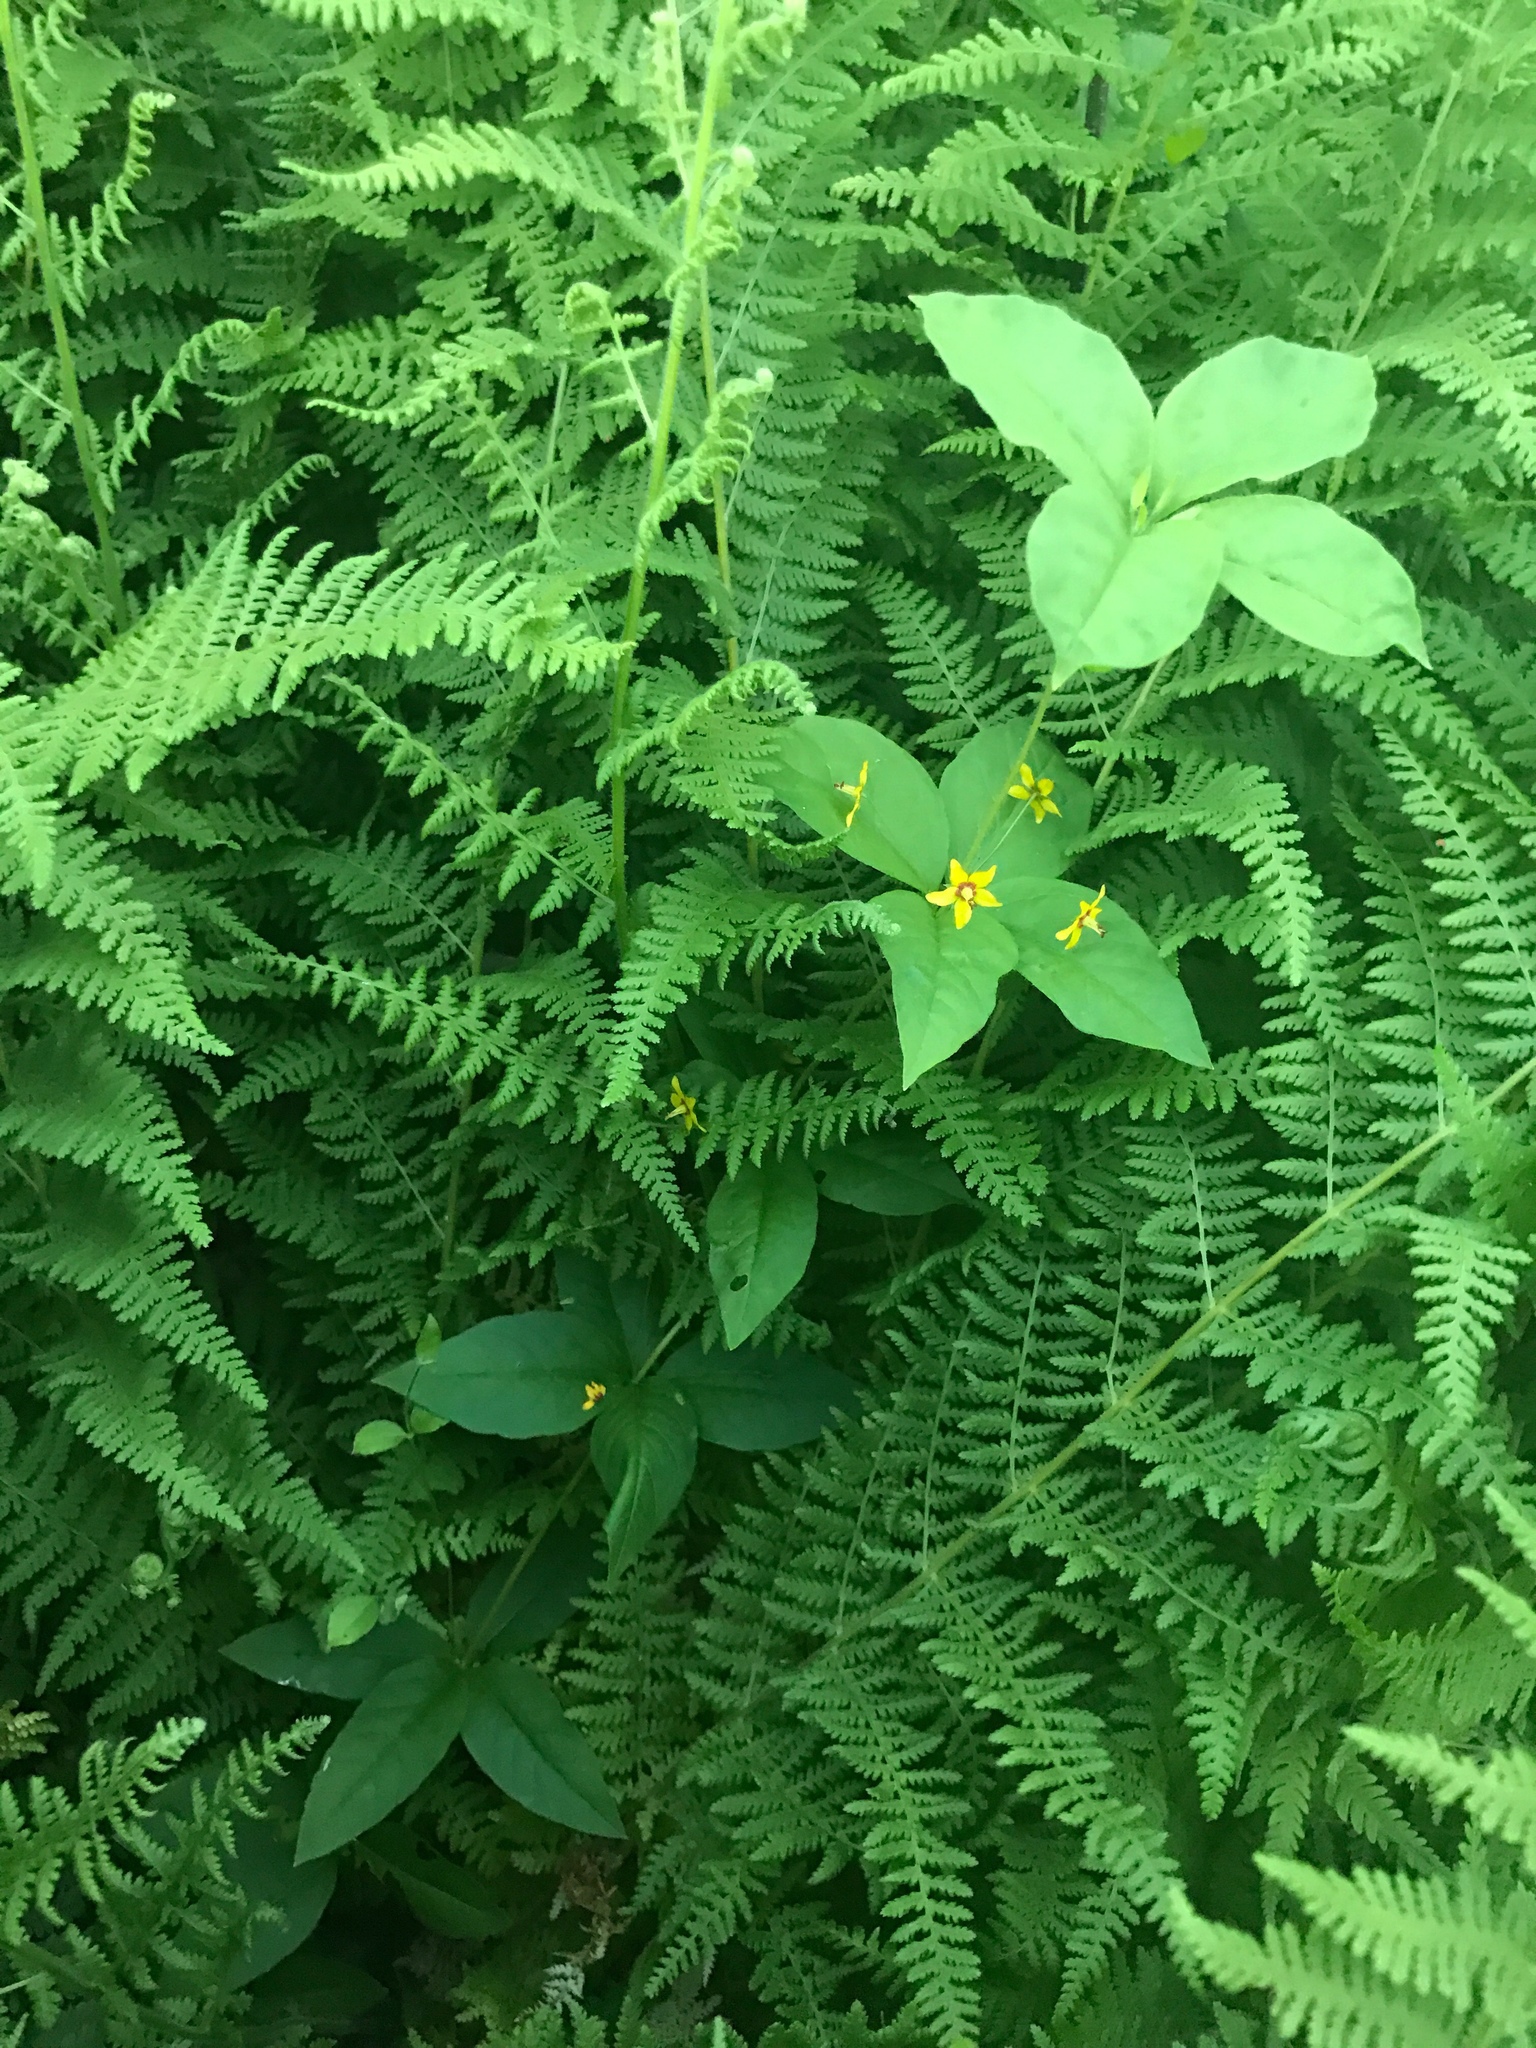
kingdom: Plantae
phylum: Tracheophyta
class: Magnoliopsida
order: Ericales
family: Primulaceae
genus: Lysimachia
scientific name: Lysimachia quadrifolia
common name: Whorled loosestrife
